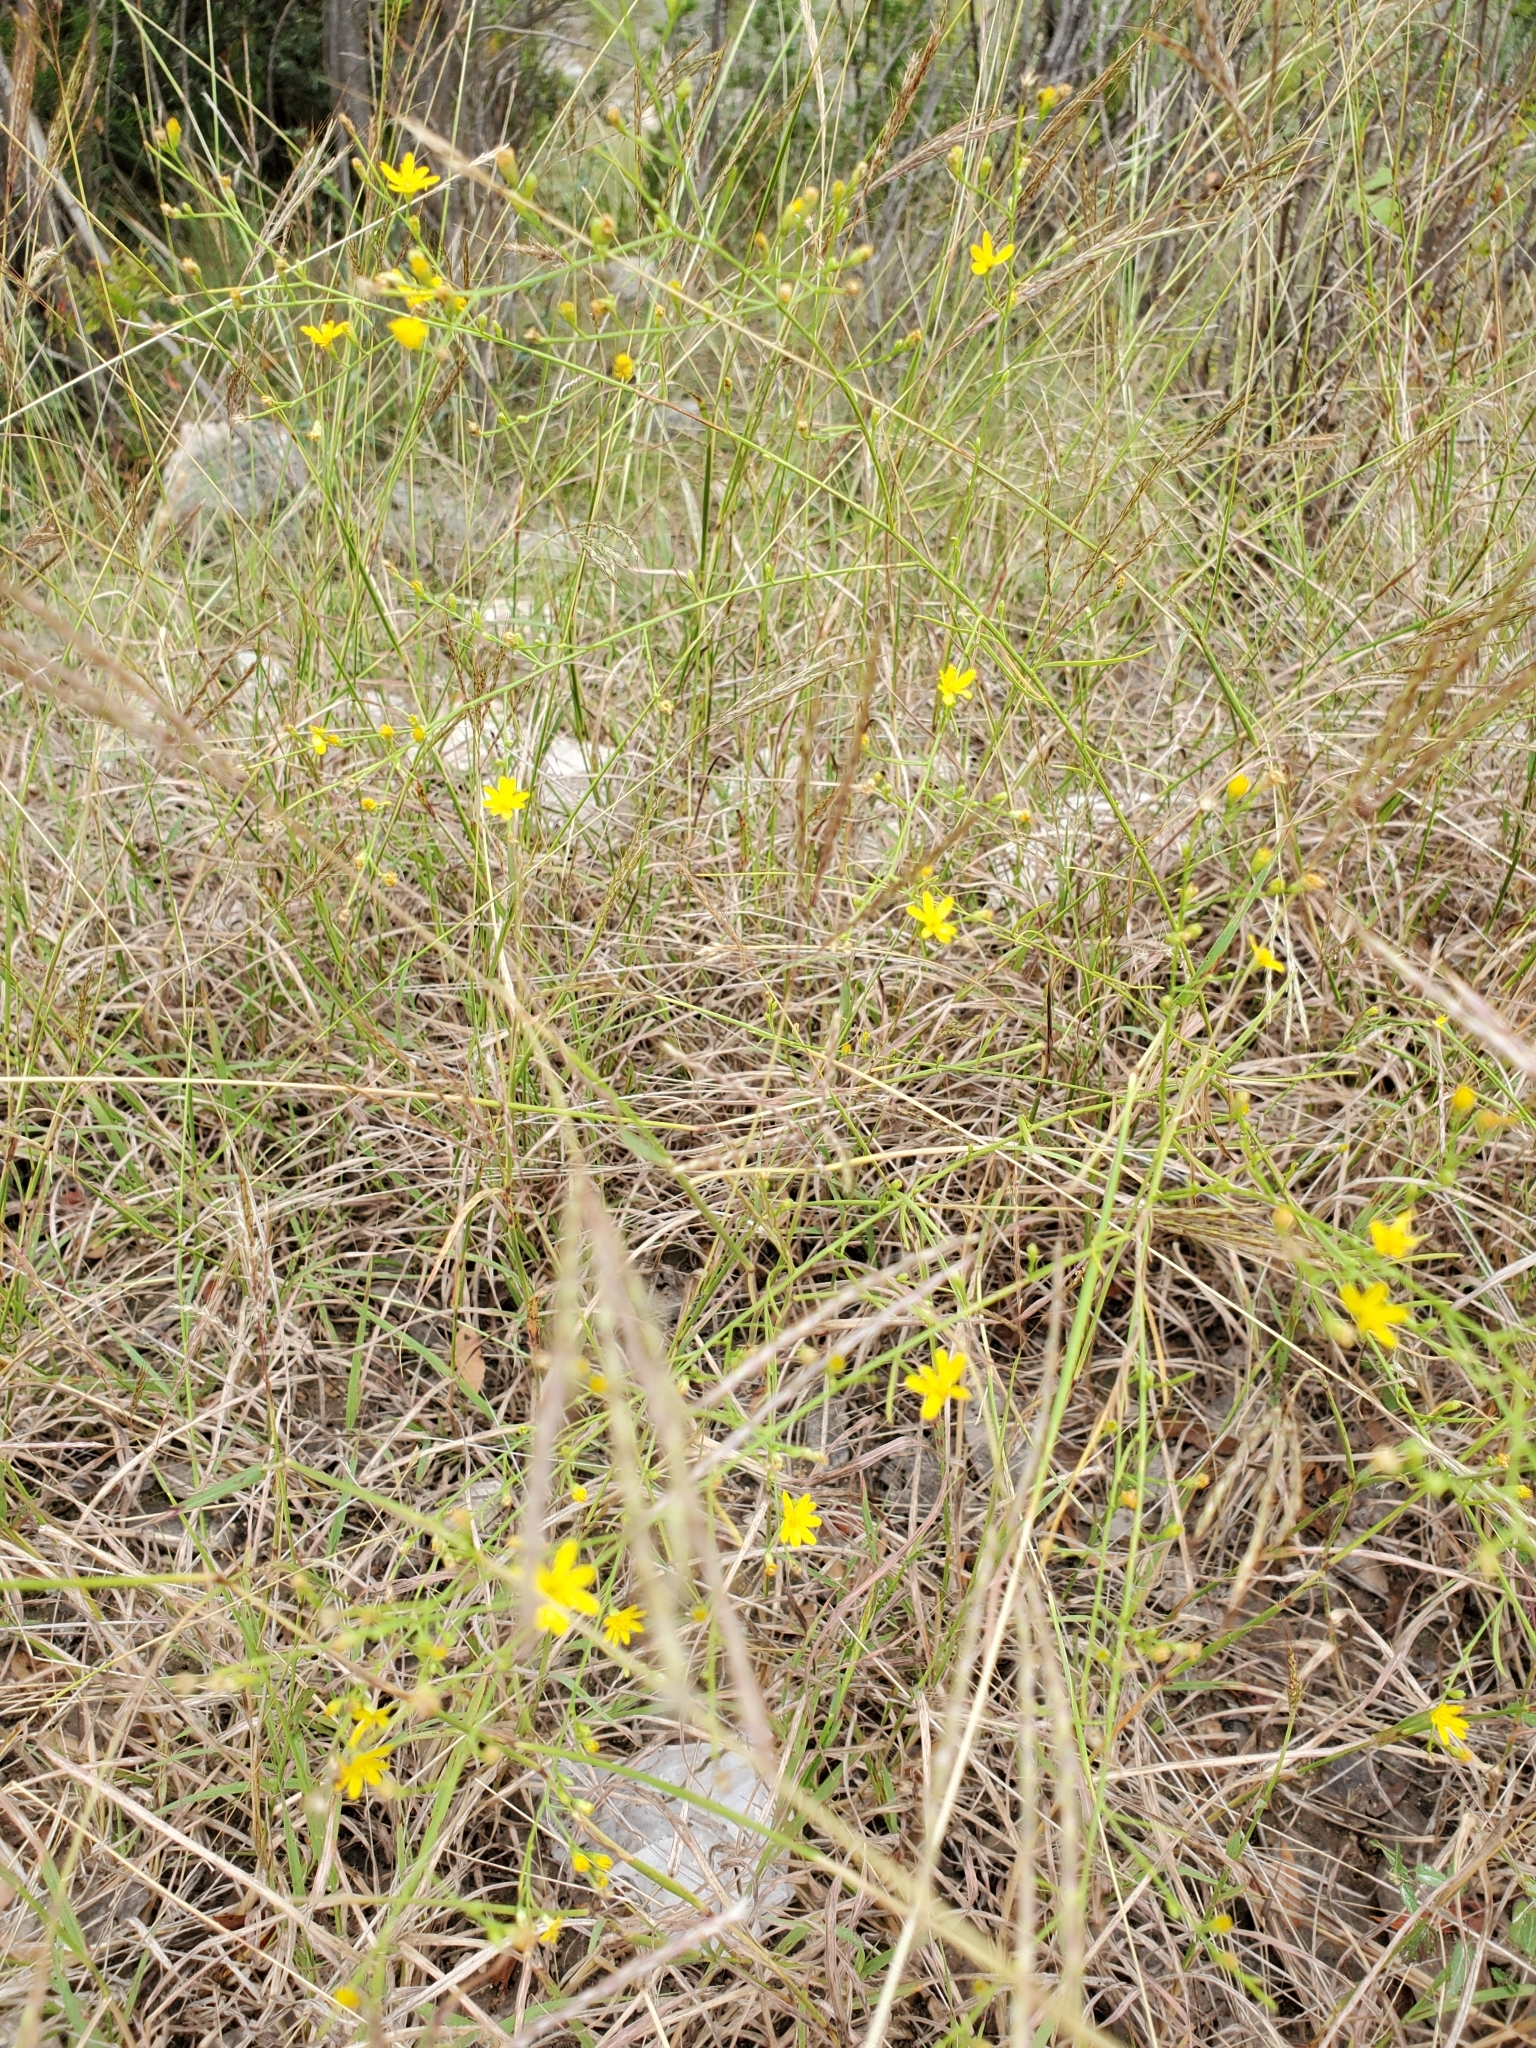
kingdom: Plantae
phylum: Tracheophyta
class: Magnoliopsida
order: Asterales
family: Asteraceae
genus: Gutierrezia
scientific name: Gutierrezia texana
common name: Texas snakeweed
